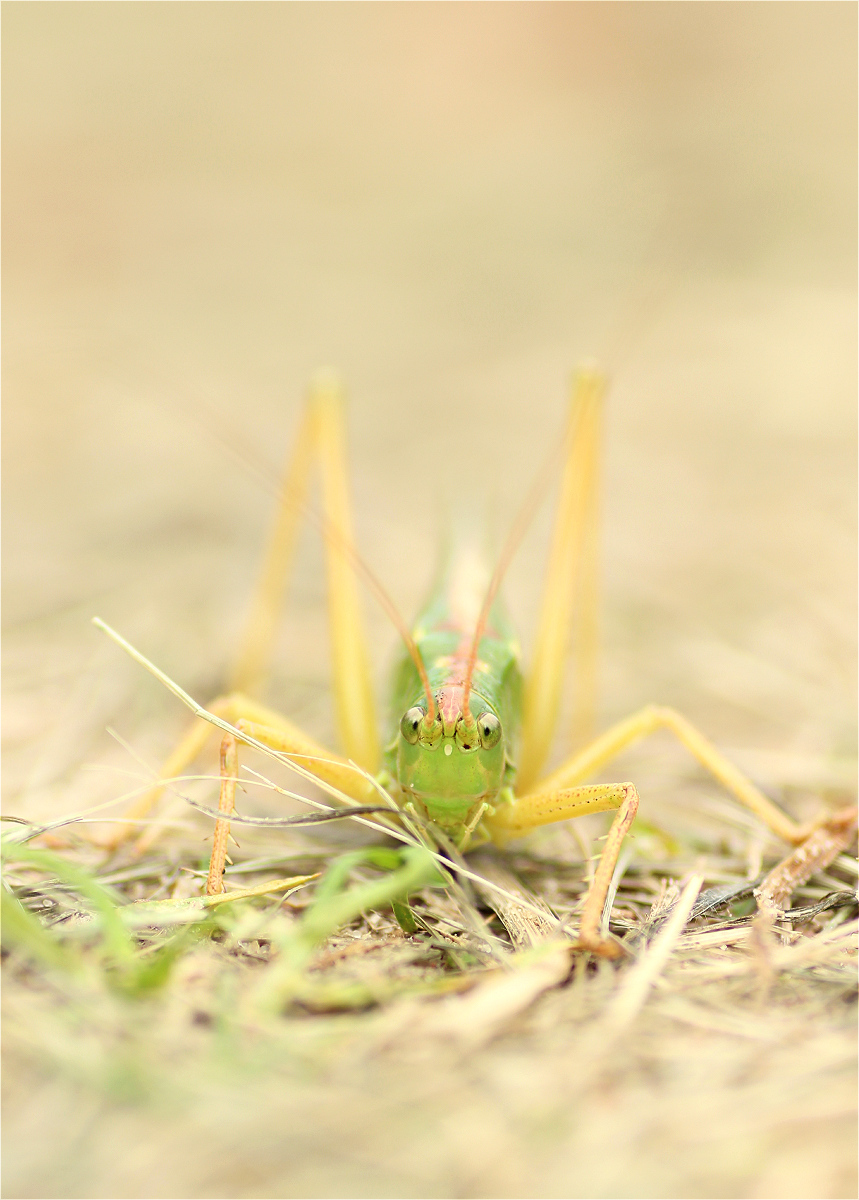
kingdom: Animalia
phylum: Arthropoda
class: Insecta
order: Orthoptera
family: Tettigoniidae
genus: Tettigonia
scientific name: Tettigonia viridissima
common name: Great green bush-cricket
